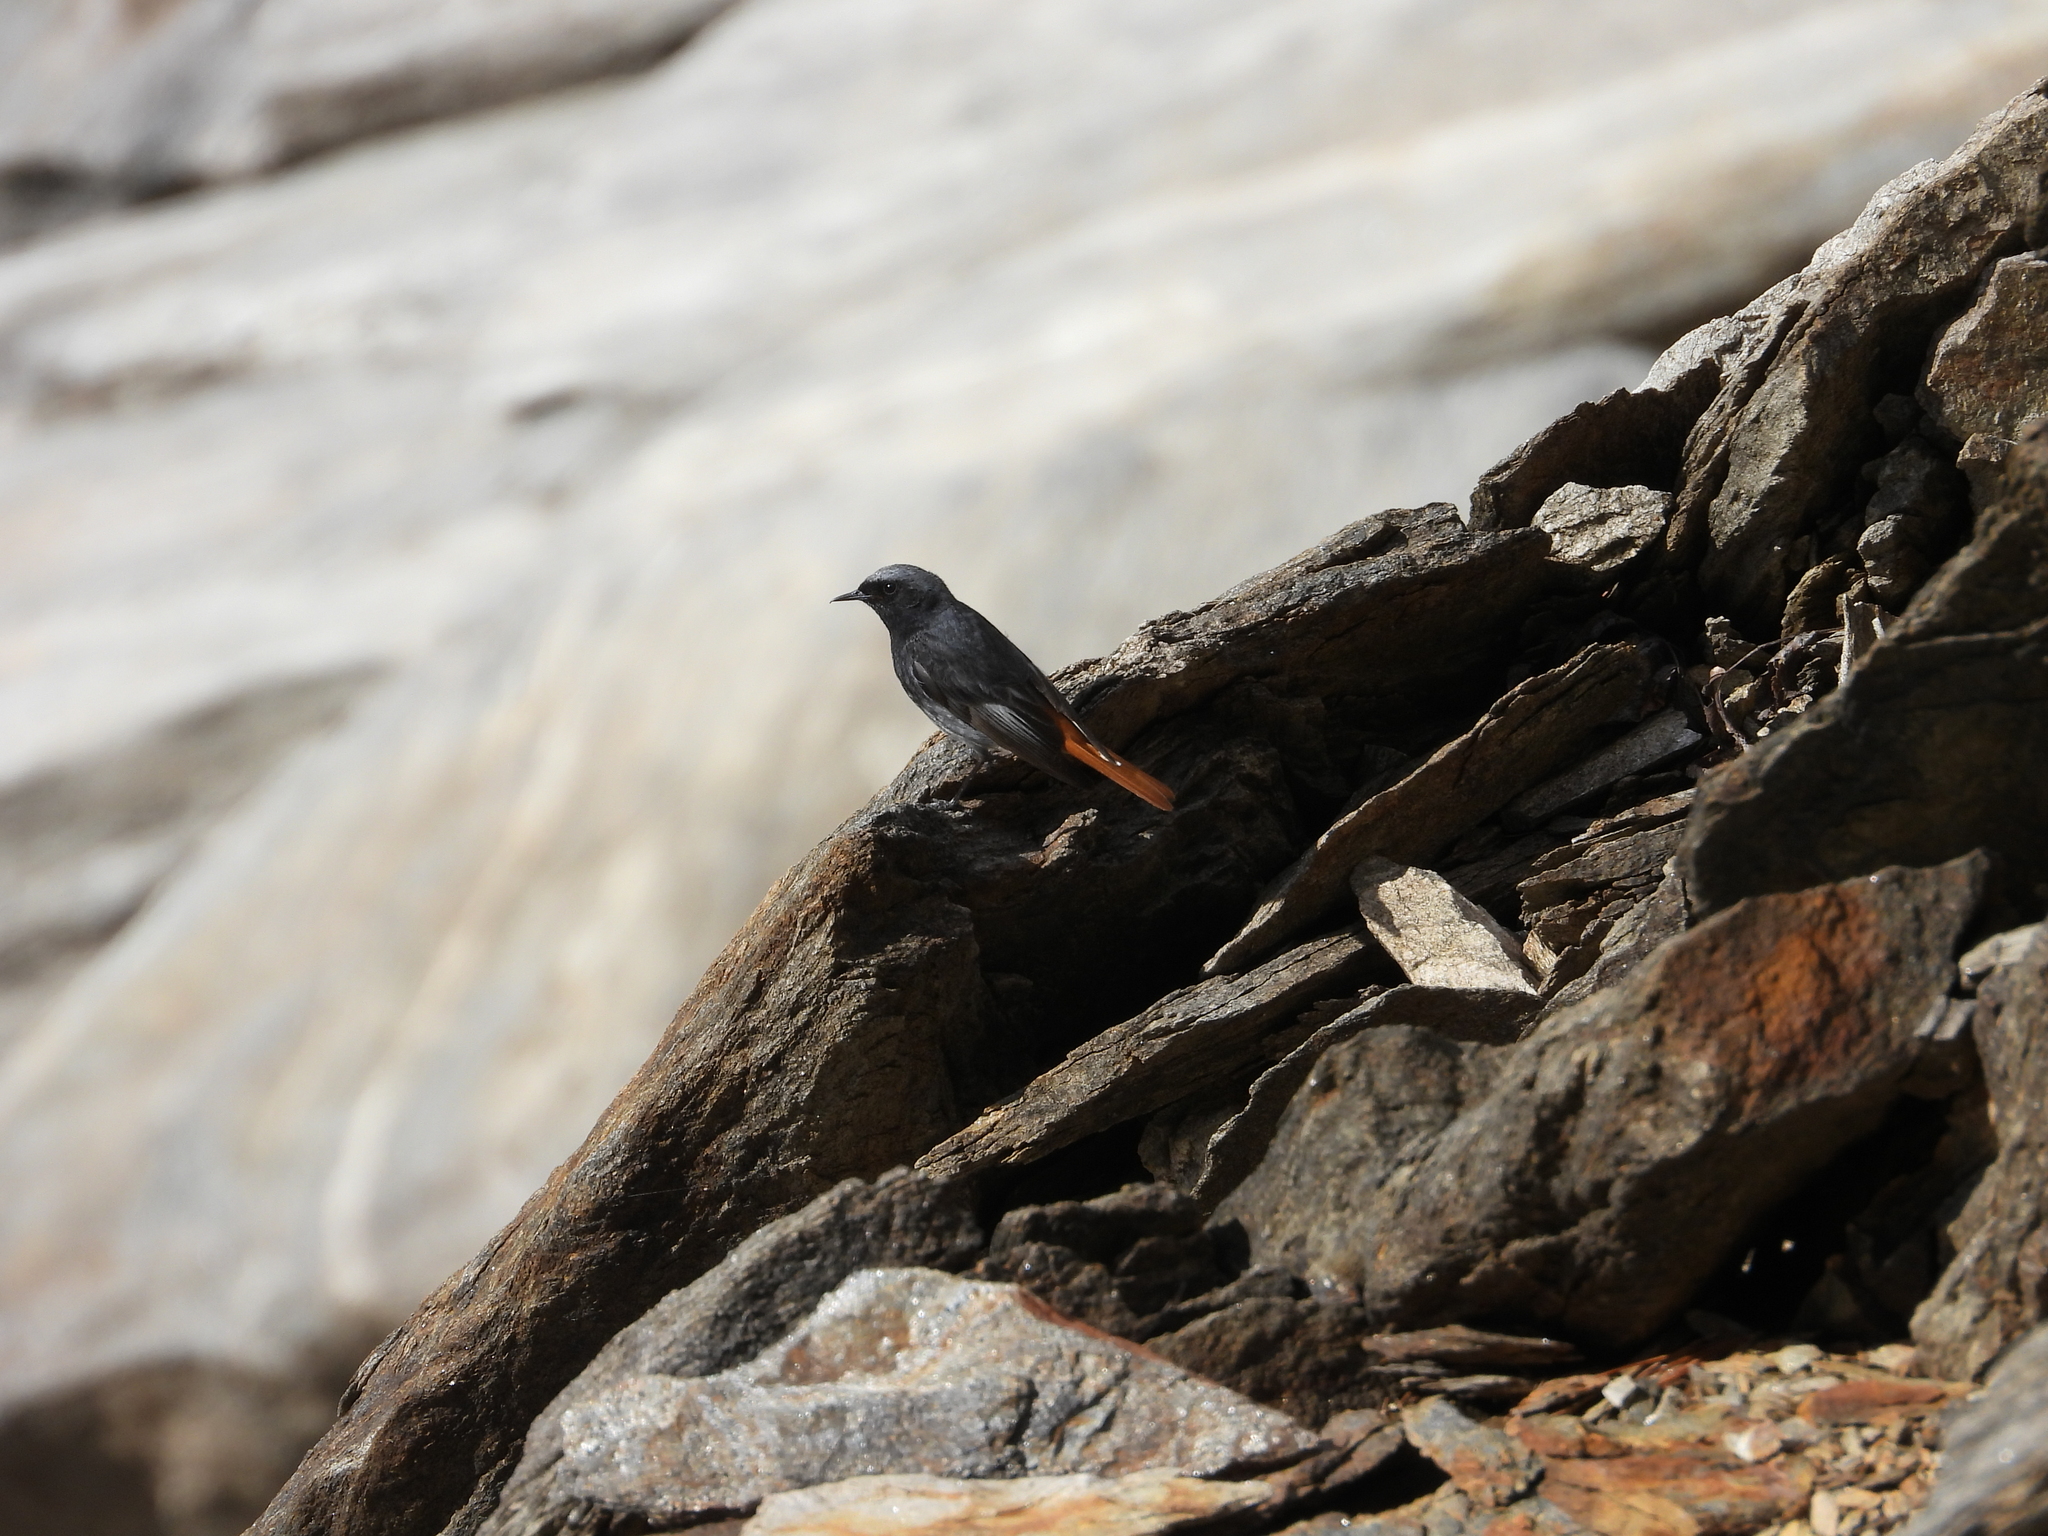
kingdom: Animalia
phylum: Chordata
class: Aves
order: Passeriformes
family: Muscicapidae
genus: Phoenicurus
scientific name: Phoenicurus ochruros
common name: Black redstart
